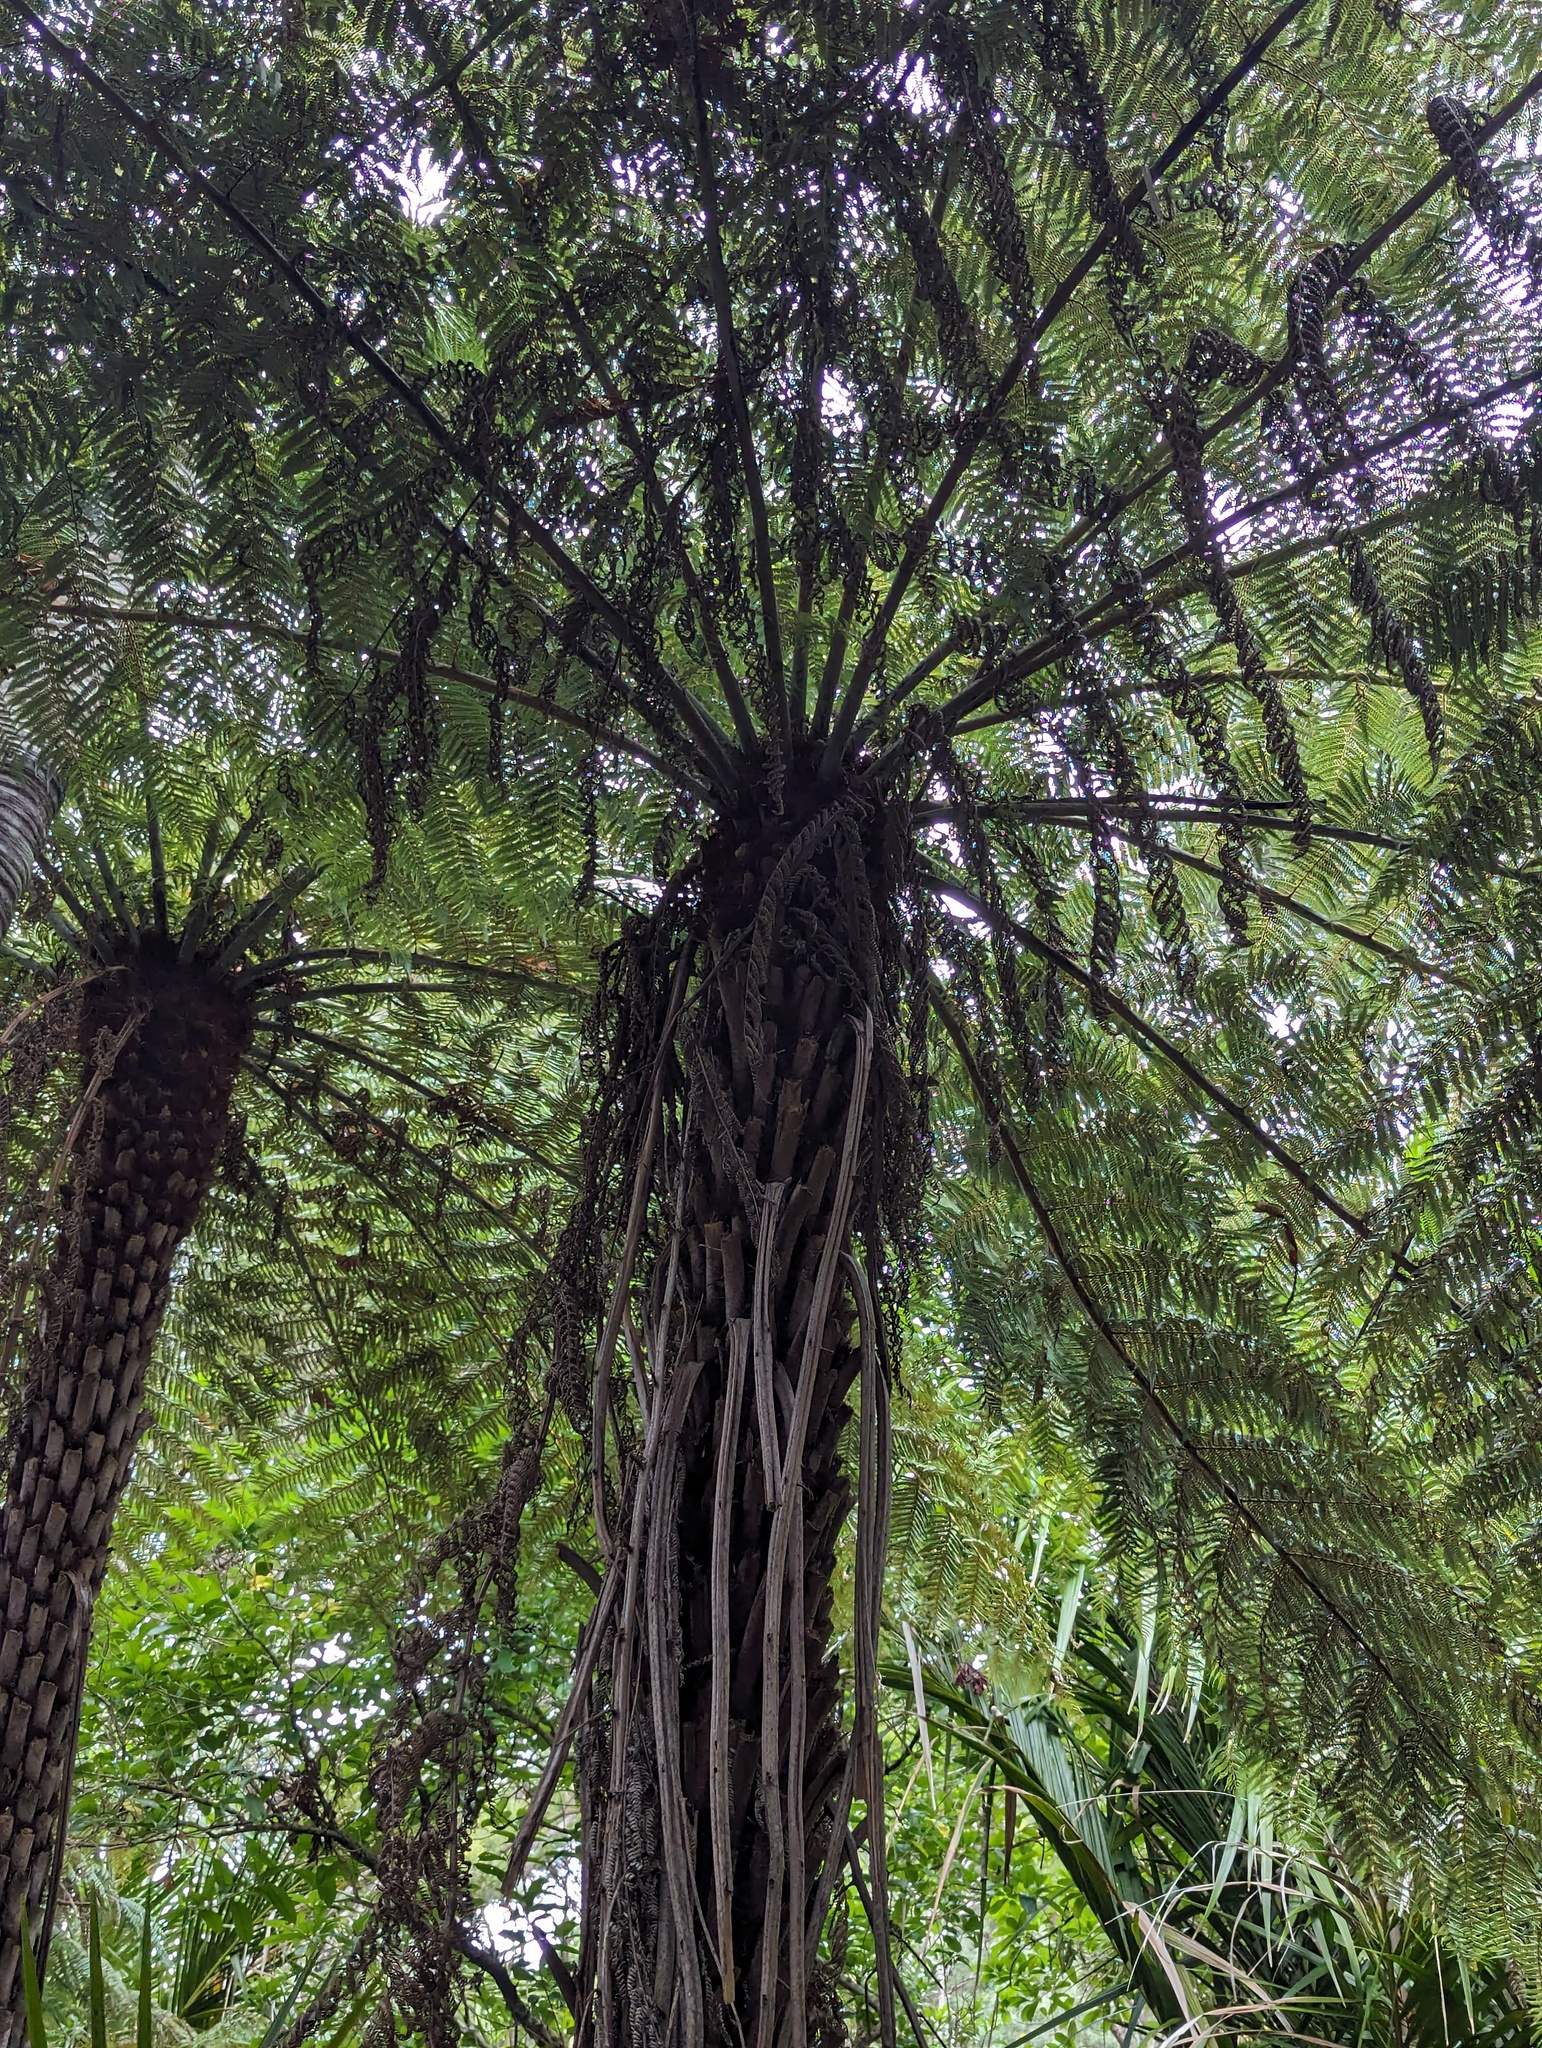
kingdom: Plantae
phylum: Tracheophyta
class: Polypodiopsida
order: Cyatheales
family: Cyatheaceae
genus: Alsophila
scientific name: Alsophila dealbata
